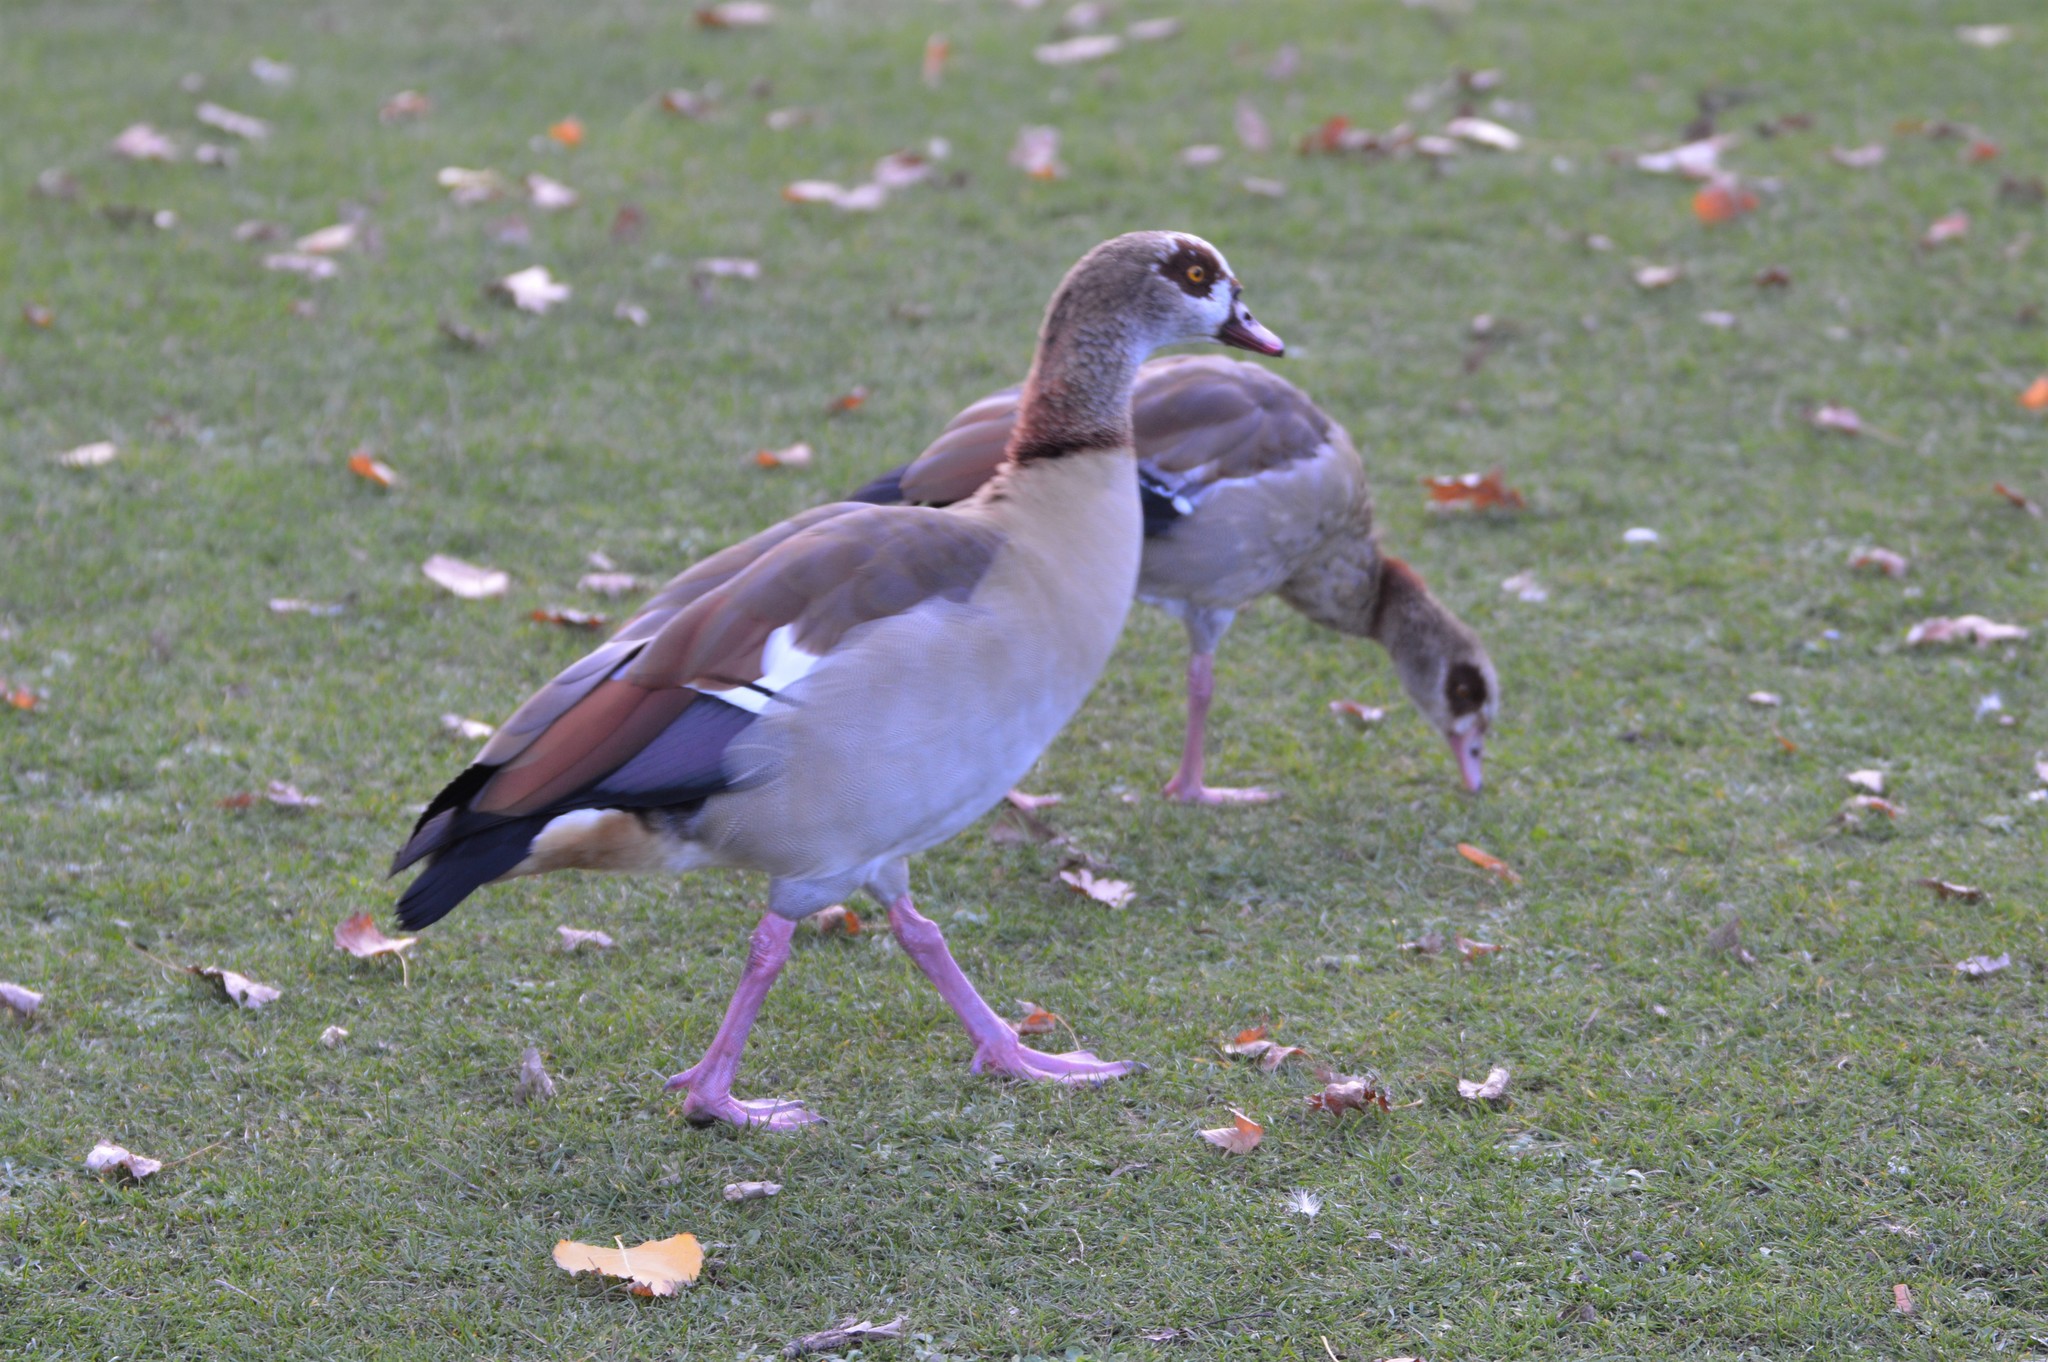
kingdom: Animalia
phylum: Chordata
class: Aves
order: Anseriformes
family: Anatidae
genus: Alopochen
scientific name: Alopochen aegyptiaca
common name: Egyptian goose
